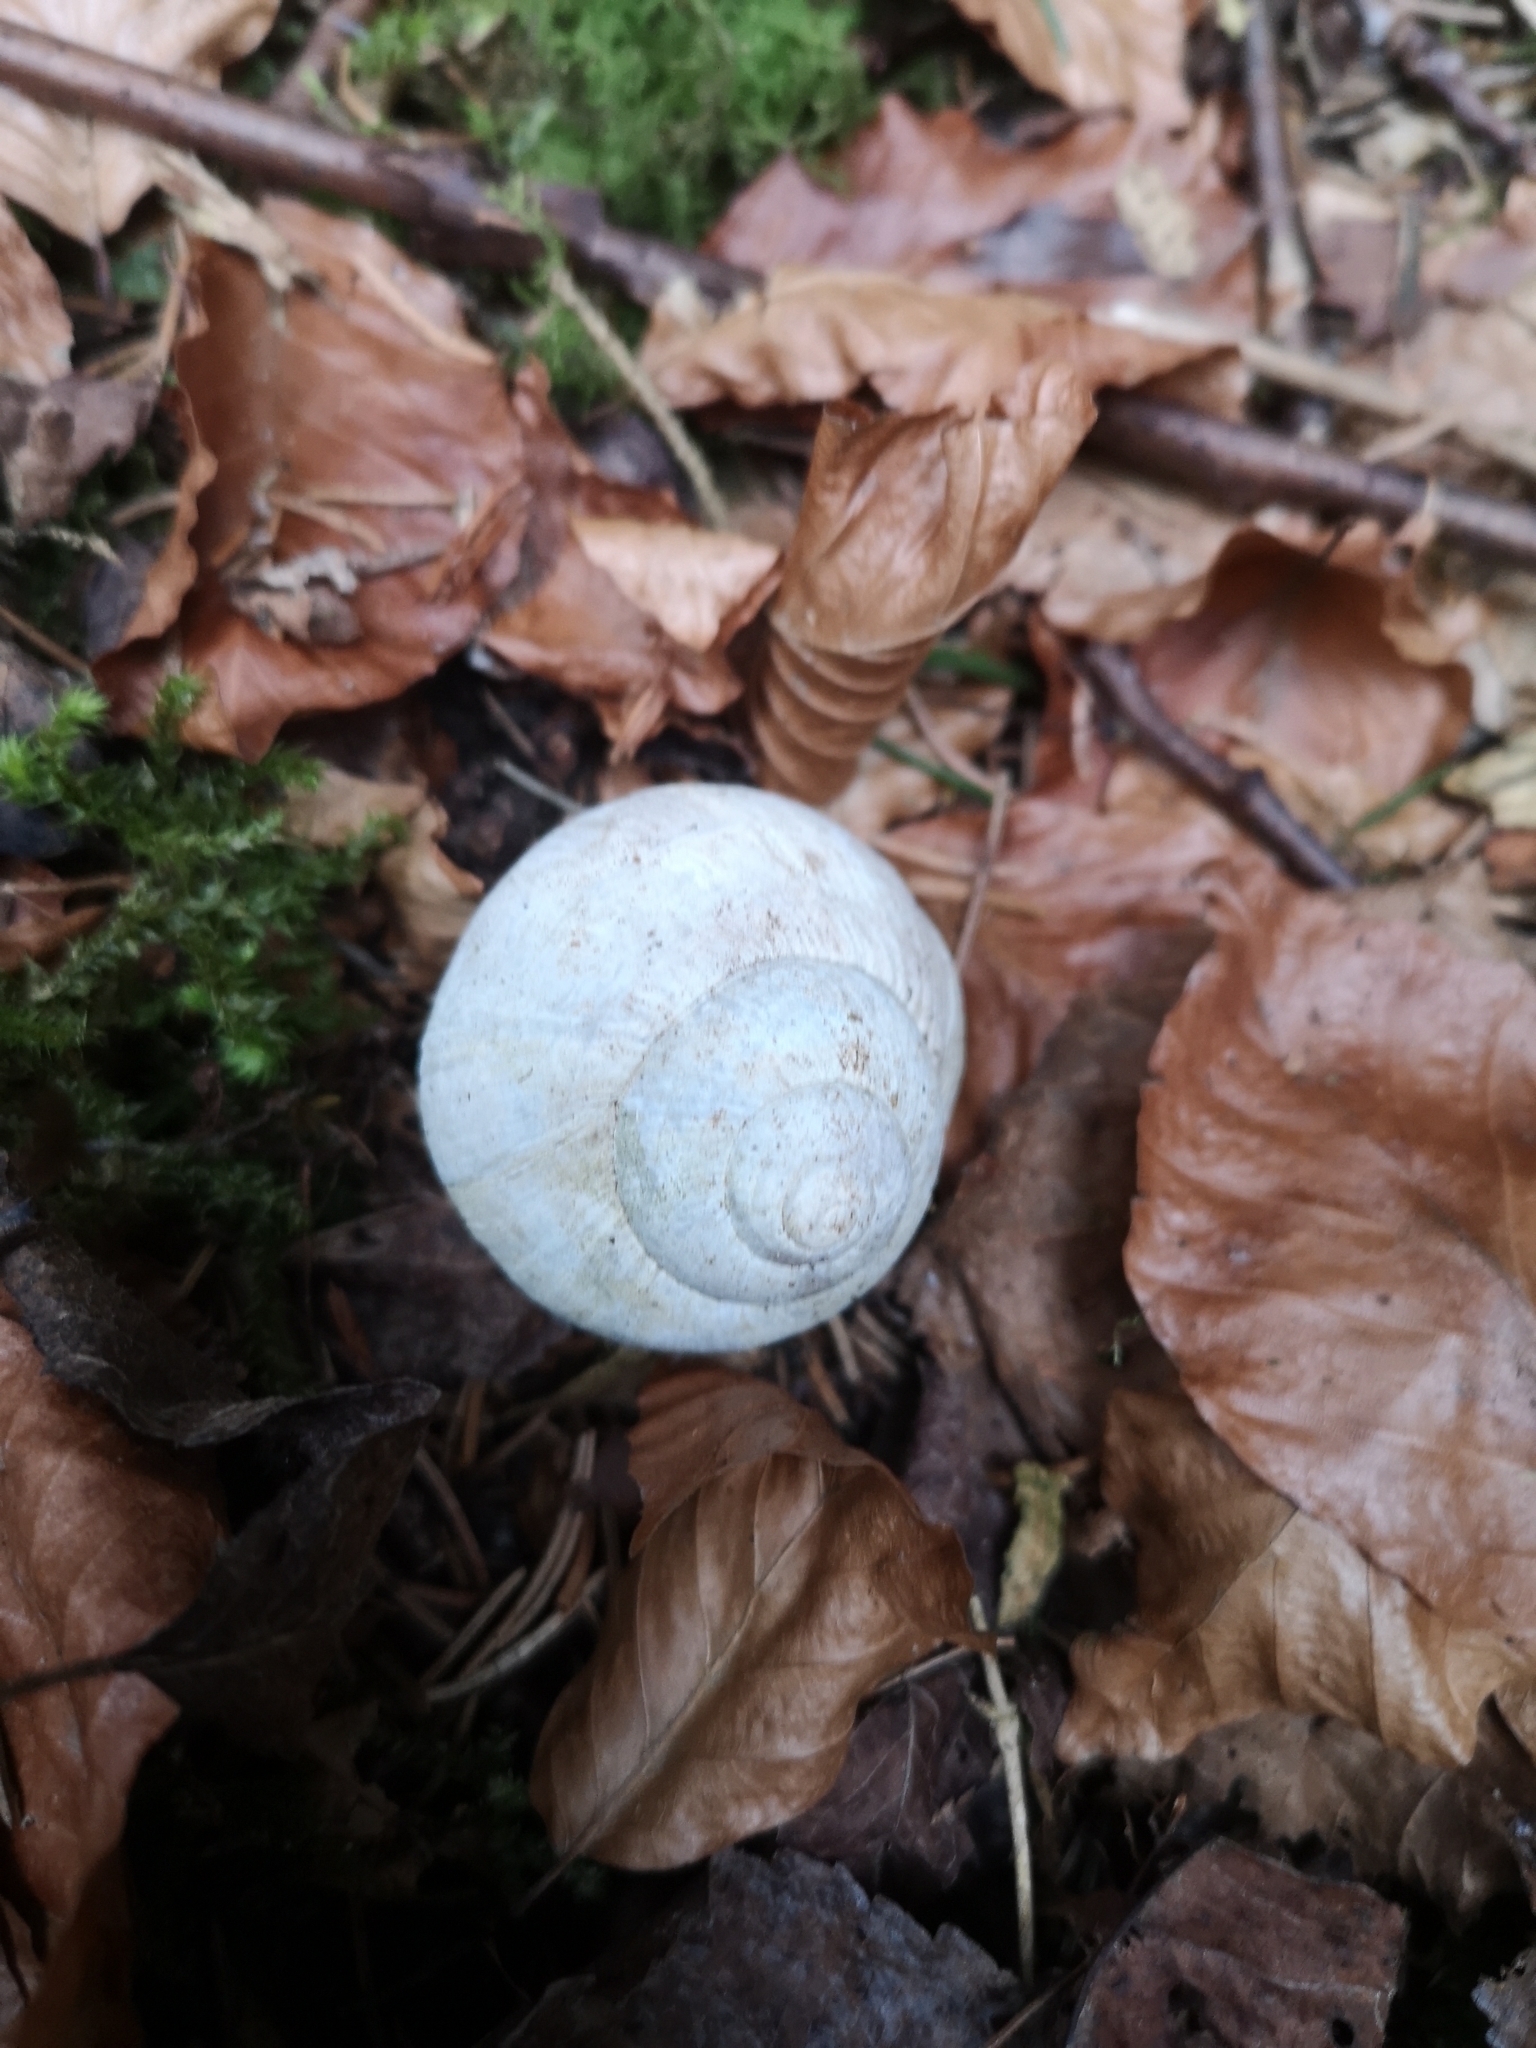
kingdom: Animalia
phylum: Mollusca
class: Gastropoda
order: Stylommatophora
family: Helicidae
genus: Helix
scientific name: Helix pomatia
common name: Roman snail
